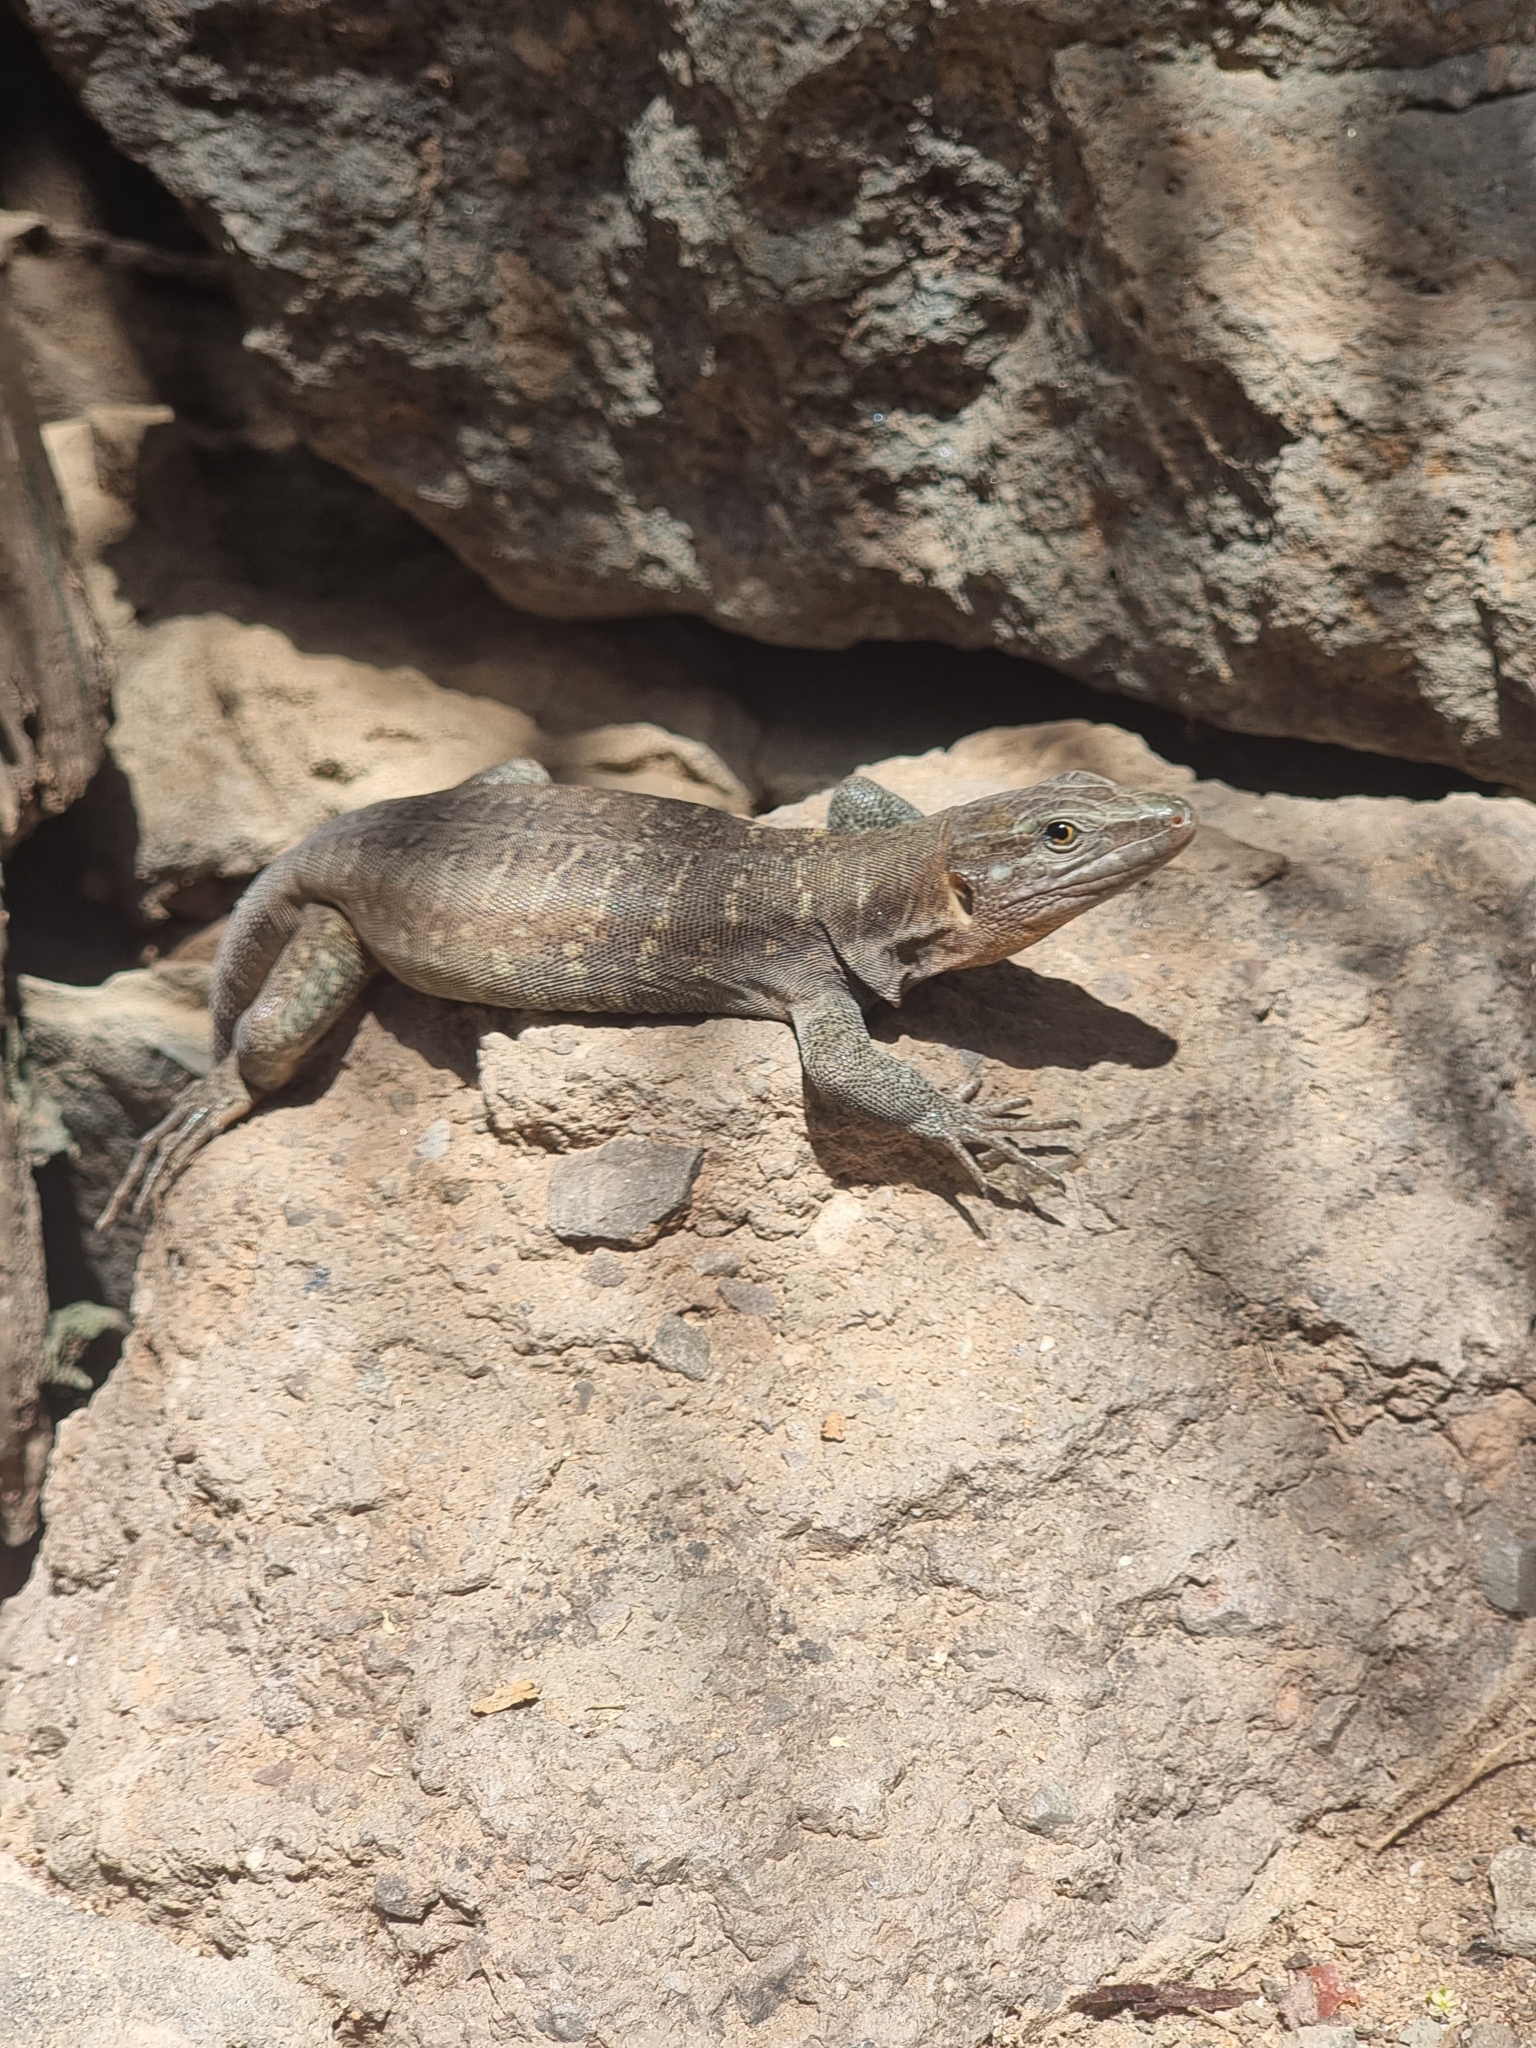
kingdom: Animalia
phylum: Chordata
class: Squamata
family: Lacertidae
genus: Gallotia
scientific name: Gallotia stehlini
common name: Gran canaria giant lizard
